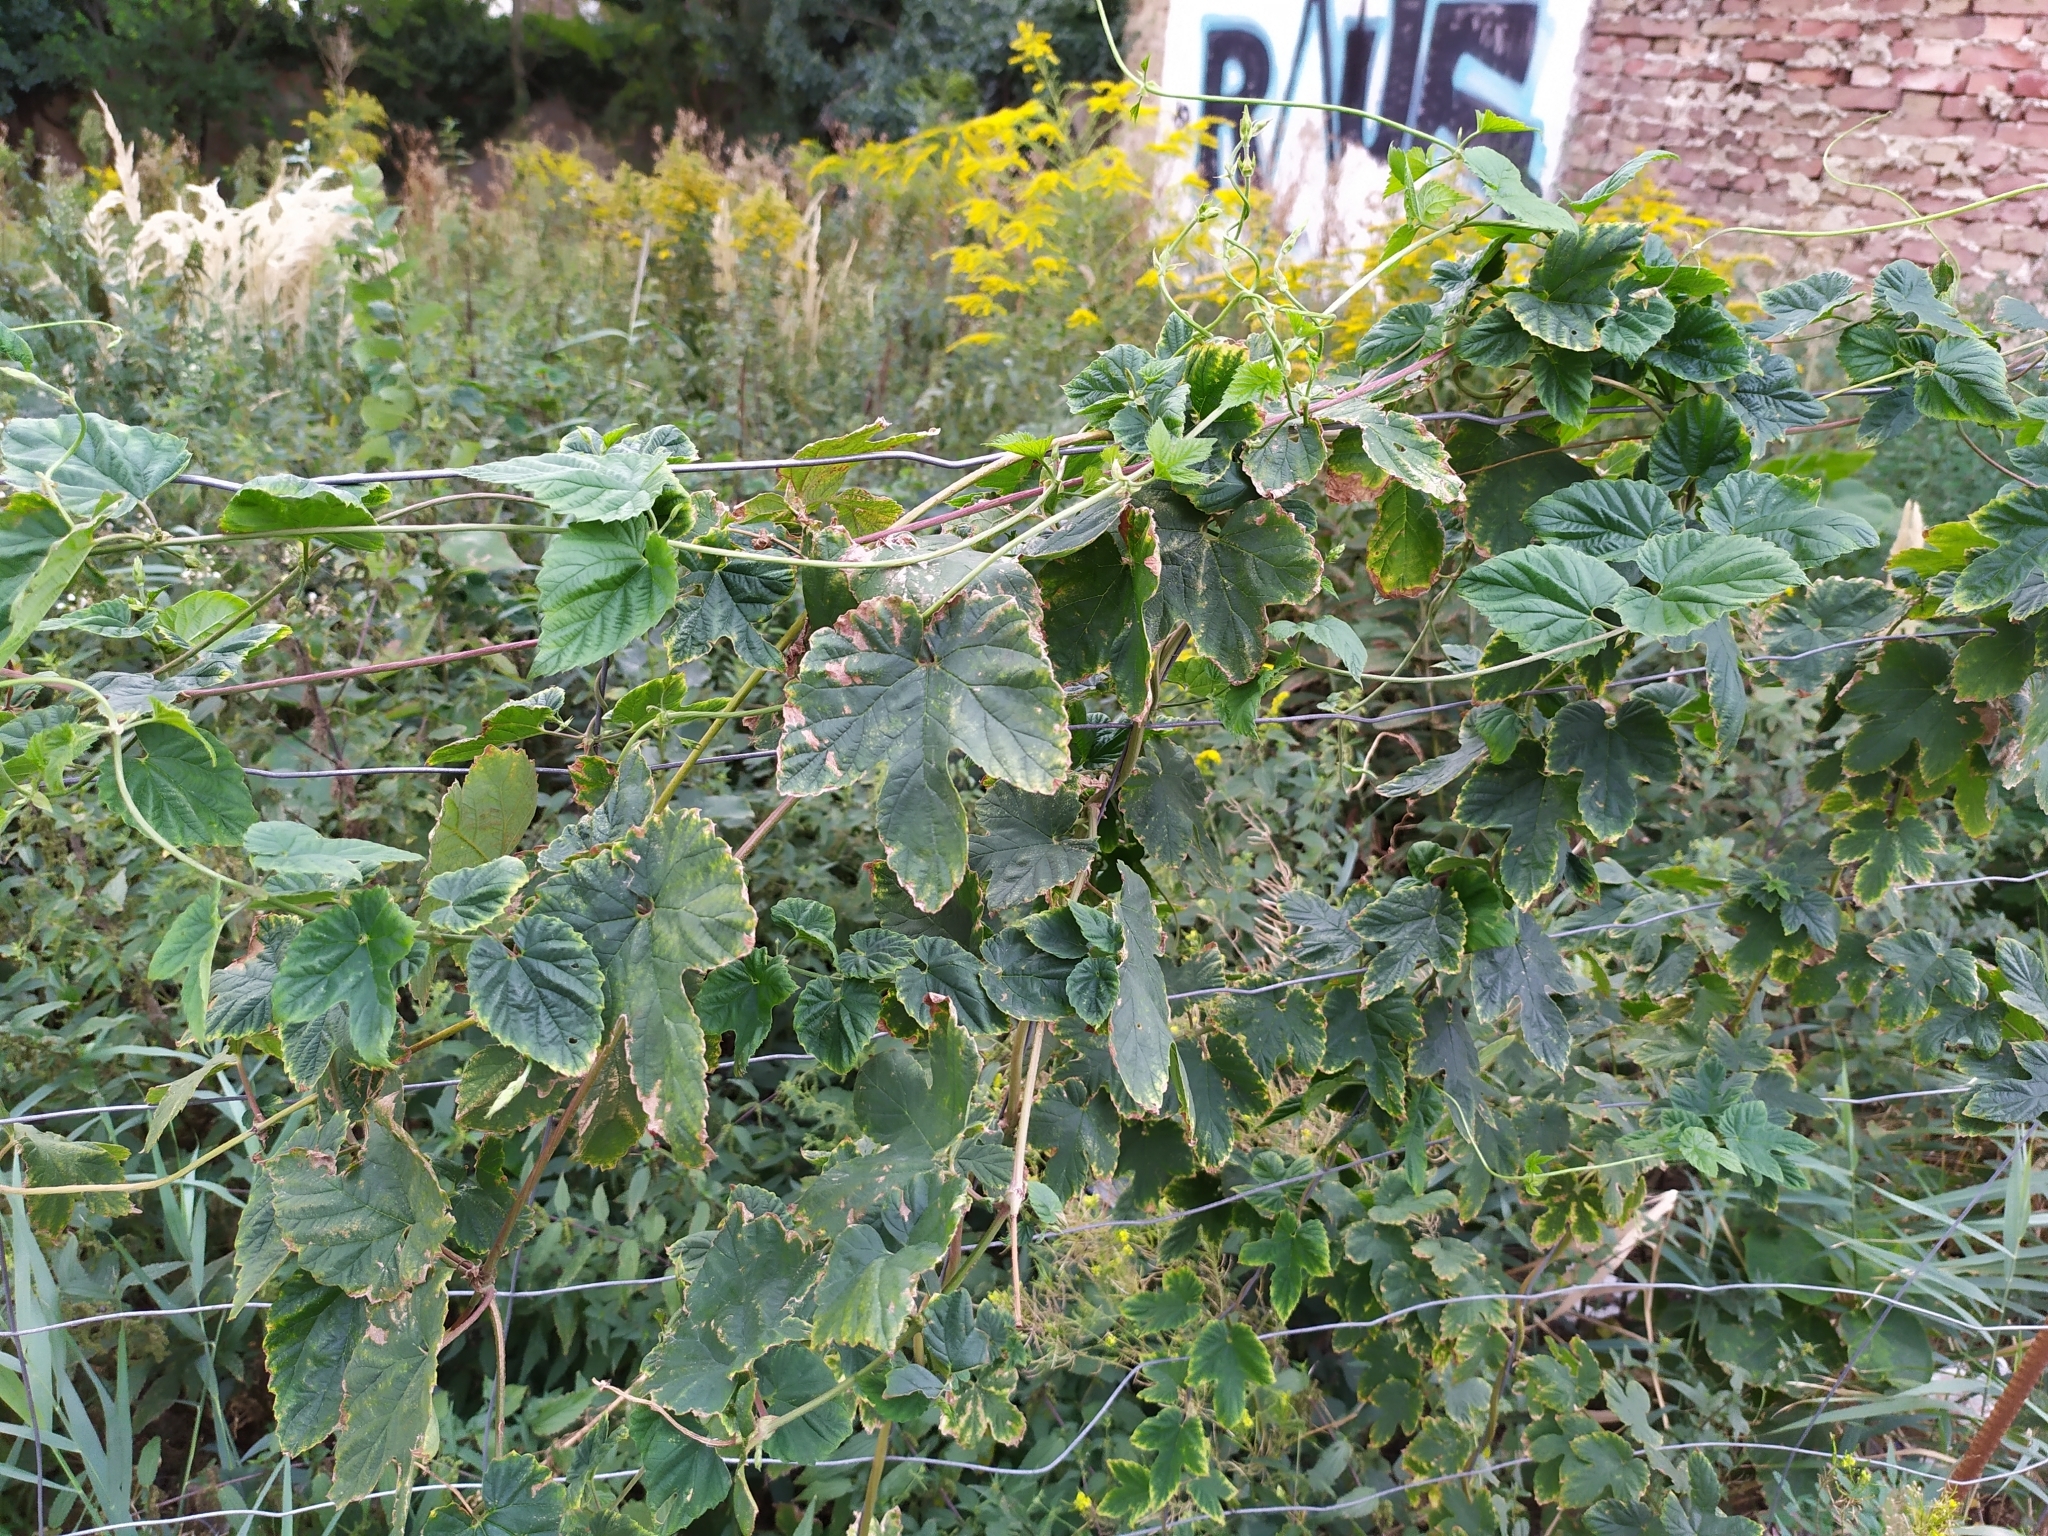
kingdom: Plantae
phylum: Tracheophyta
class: Magnoliopsida
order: Rosales
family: Cannabaceae
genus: Humulus
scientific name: Humulus lupulus
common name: Hop
